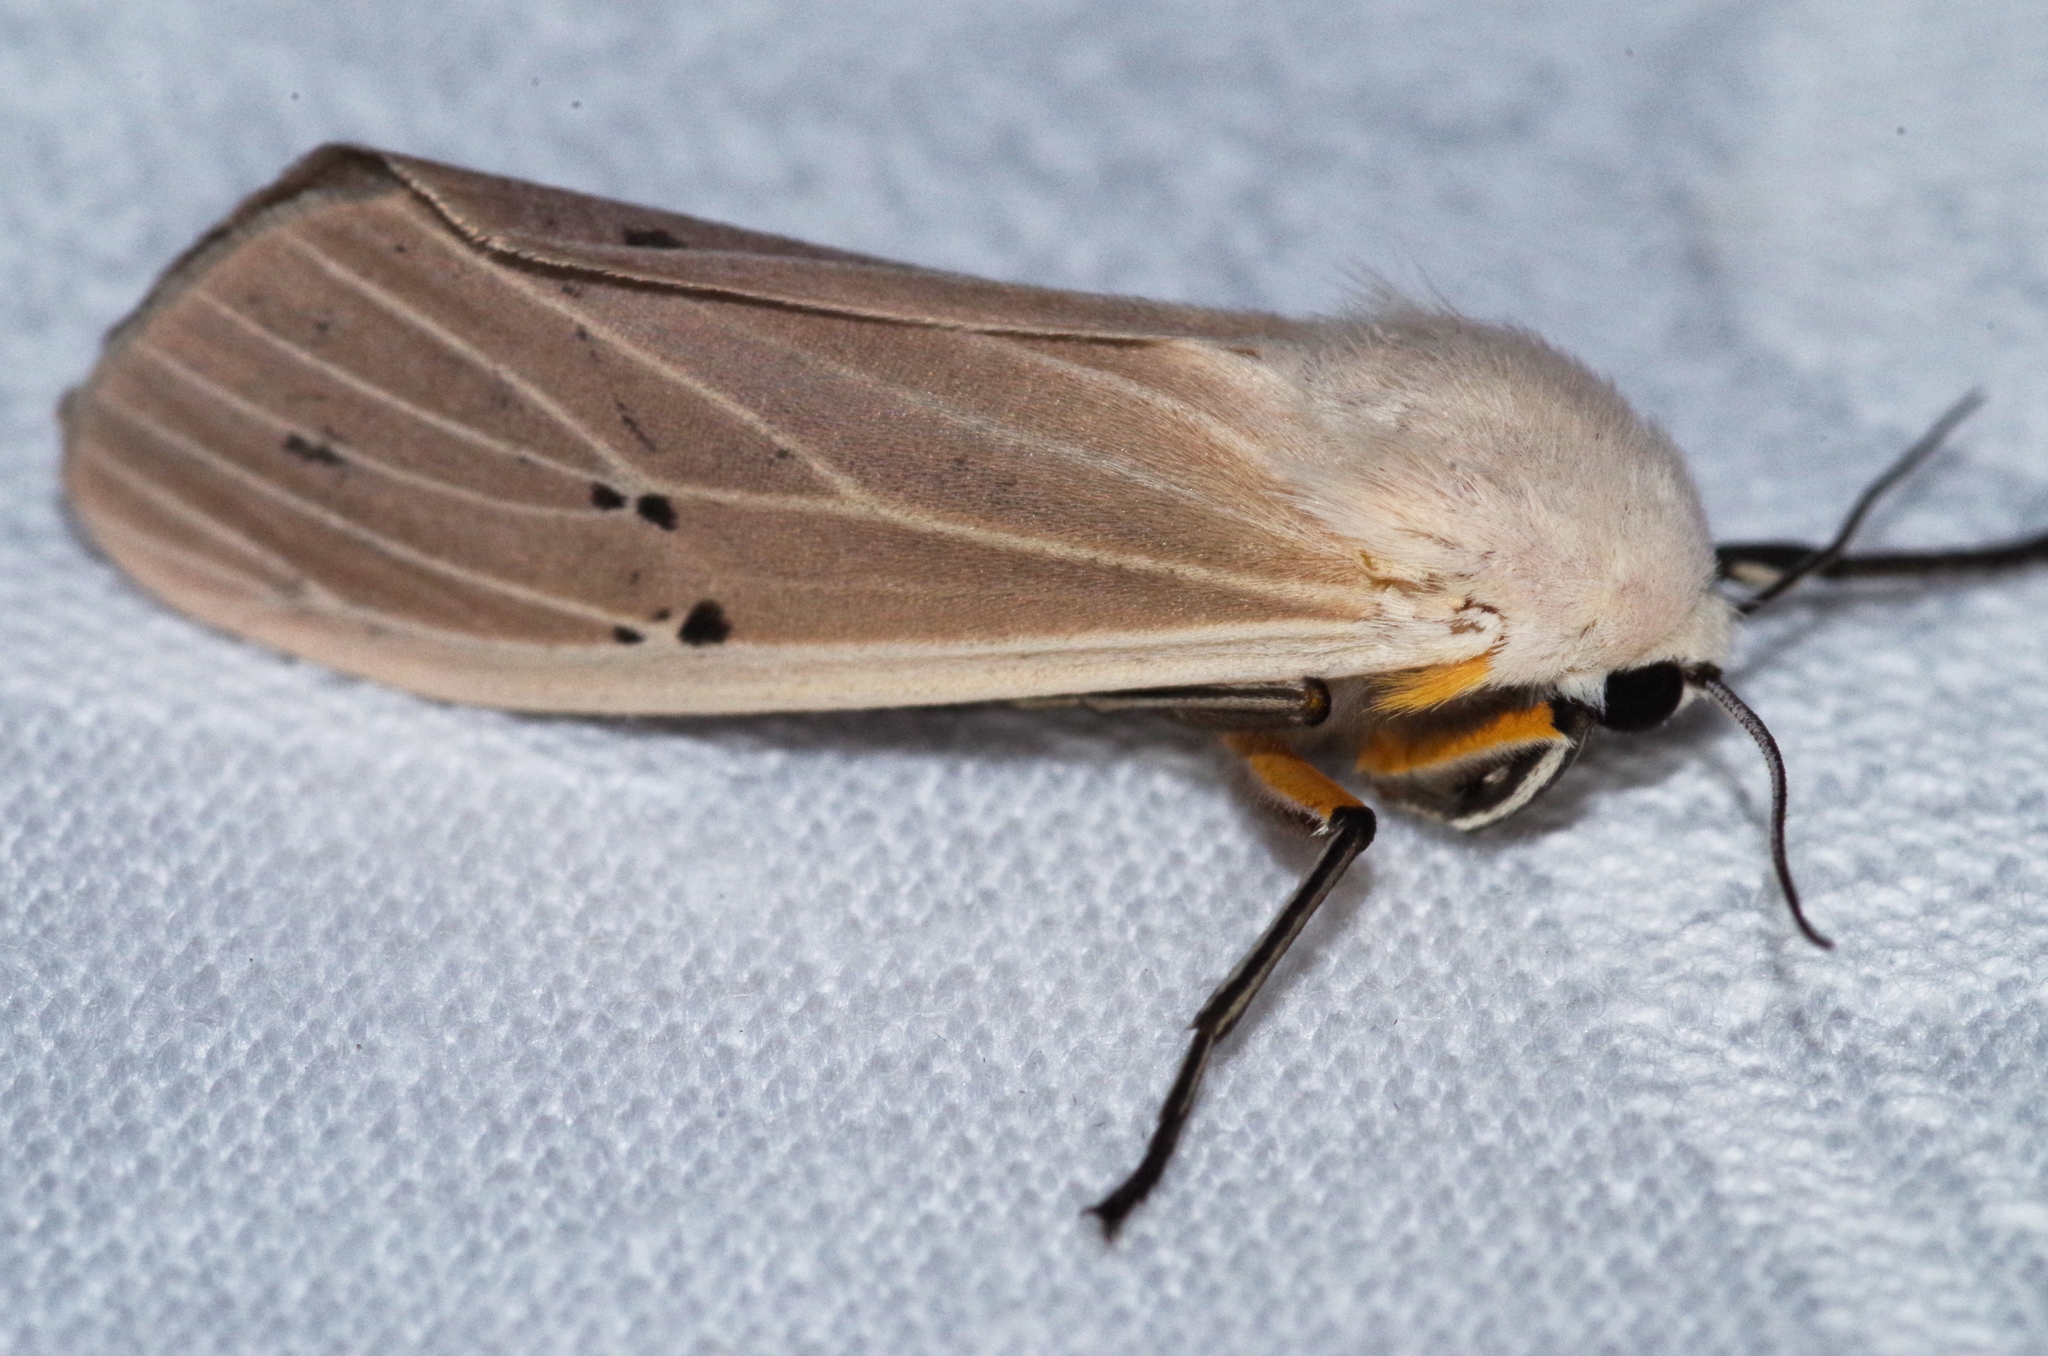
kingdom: Animalia
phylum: Arthropoda
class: Insecta
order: Lepidoptera
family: Erebidae
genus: Creatonotos
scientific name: Creatonotos transiens
